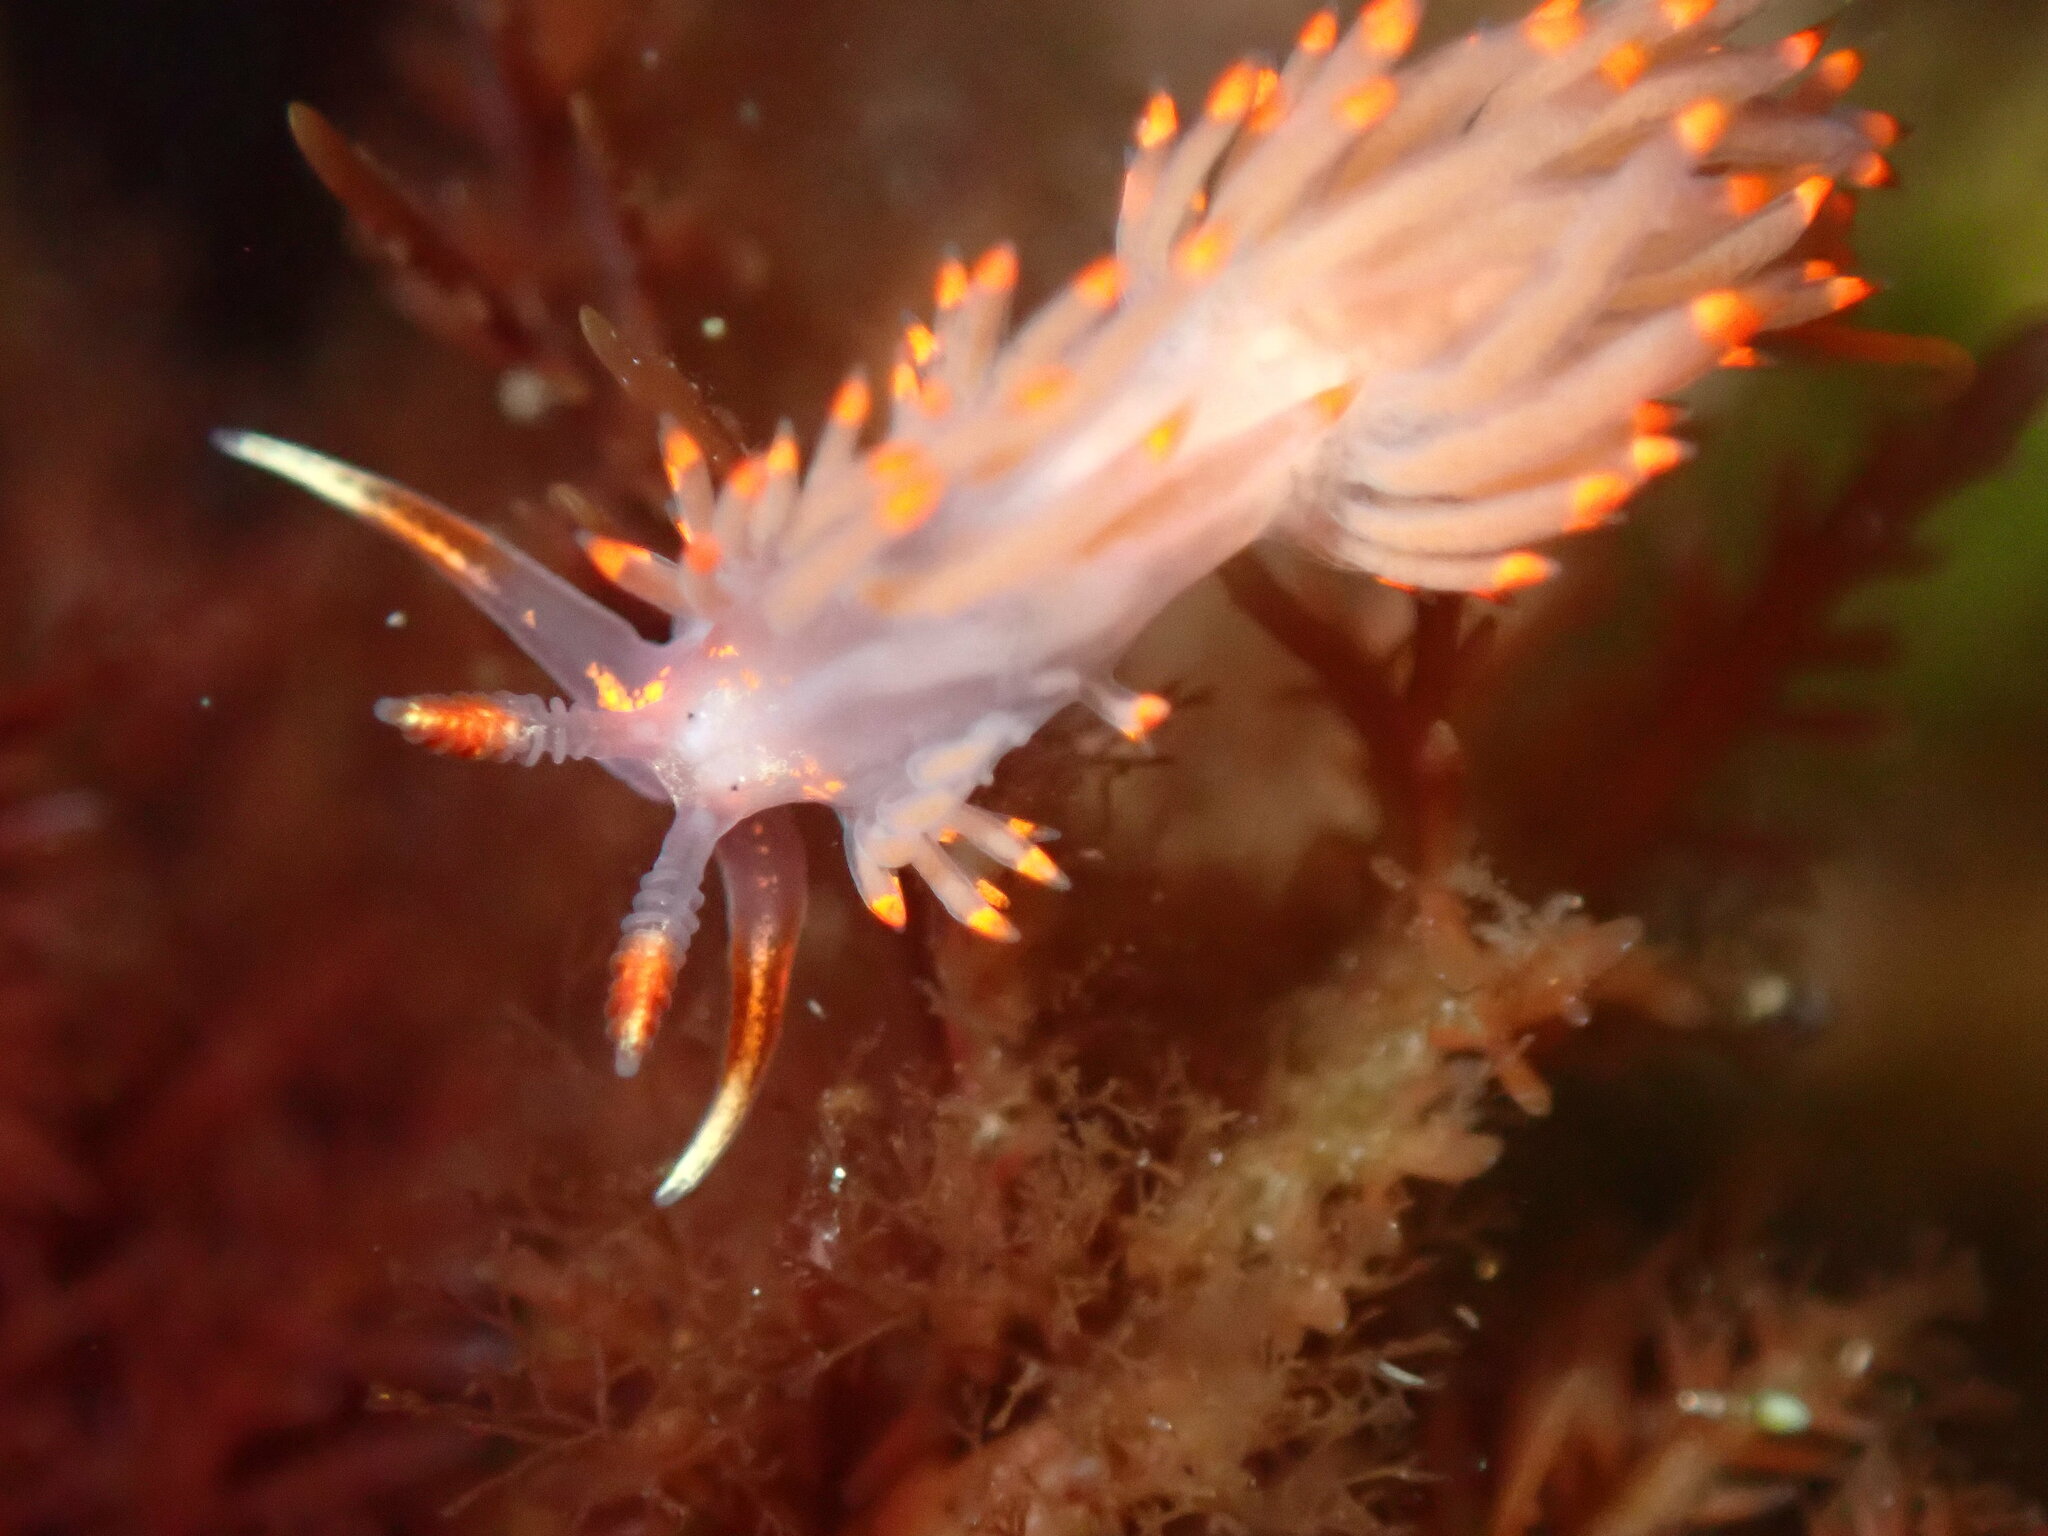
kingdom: Animalia
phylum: Mollusca
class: Gastropoda
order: Nudibranchia
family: Facelinidae
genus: Austraeolis
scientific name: Austraeolis stearnsi
